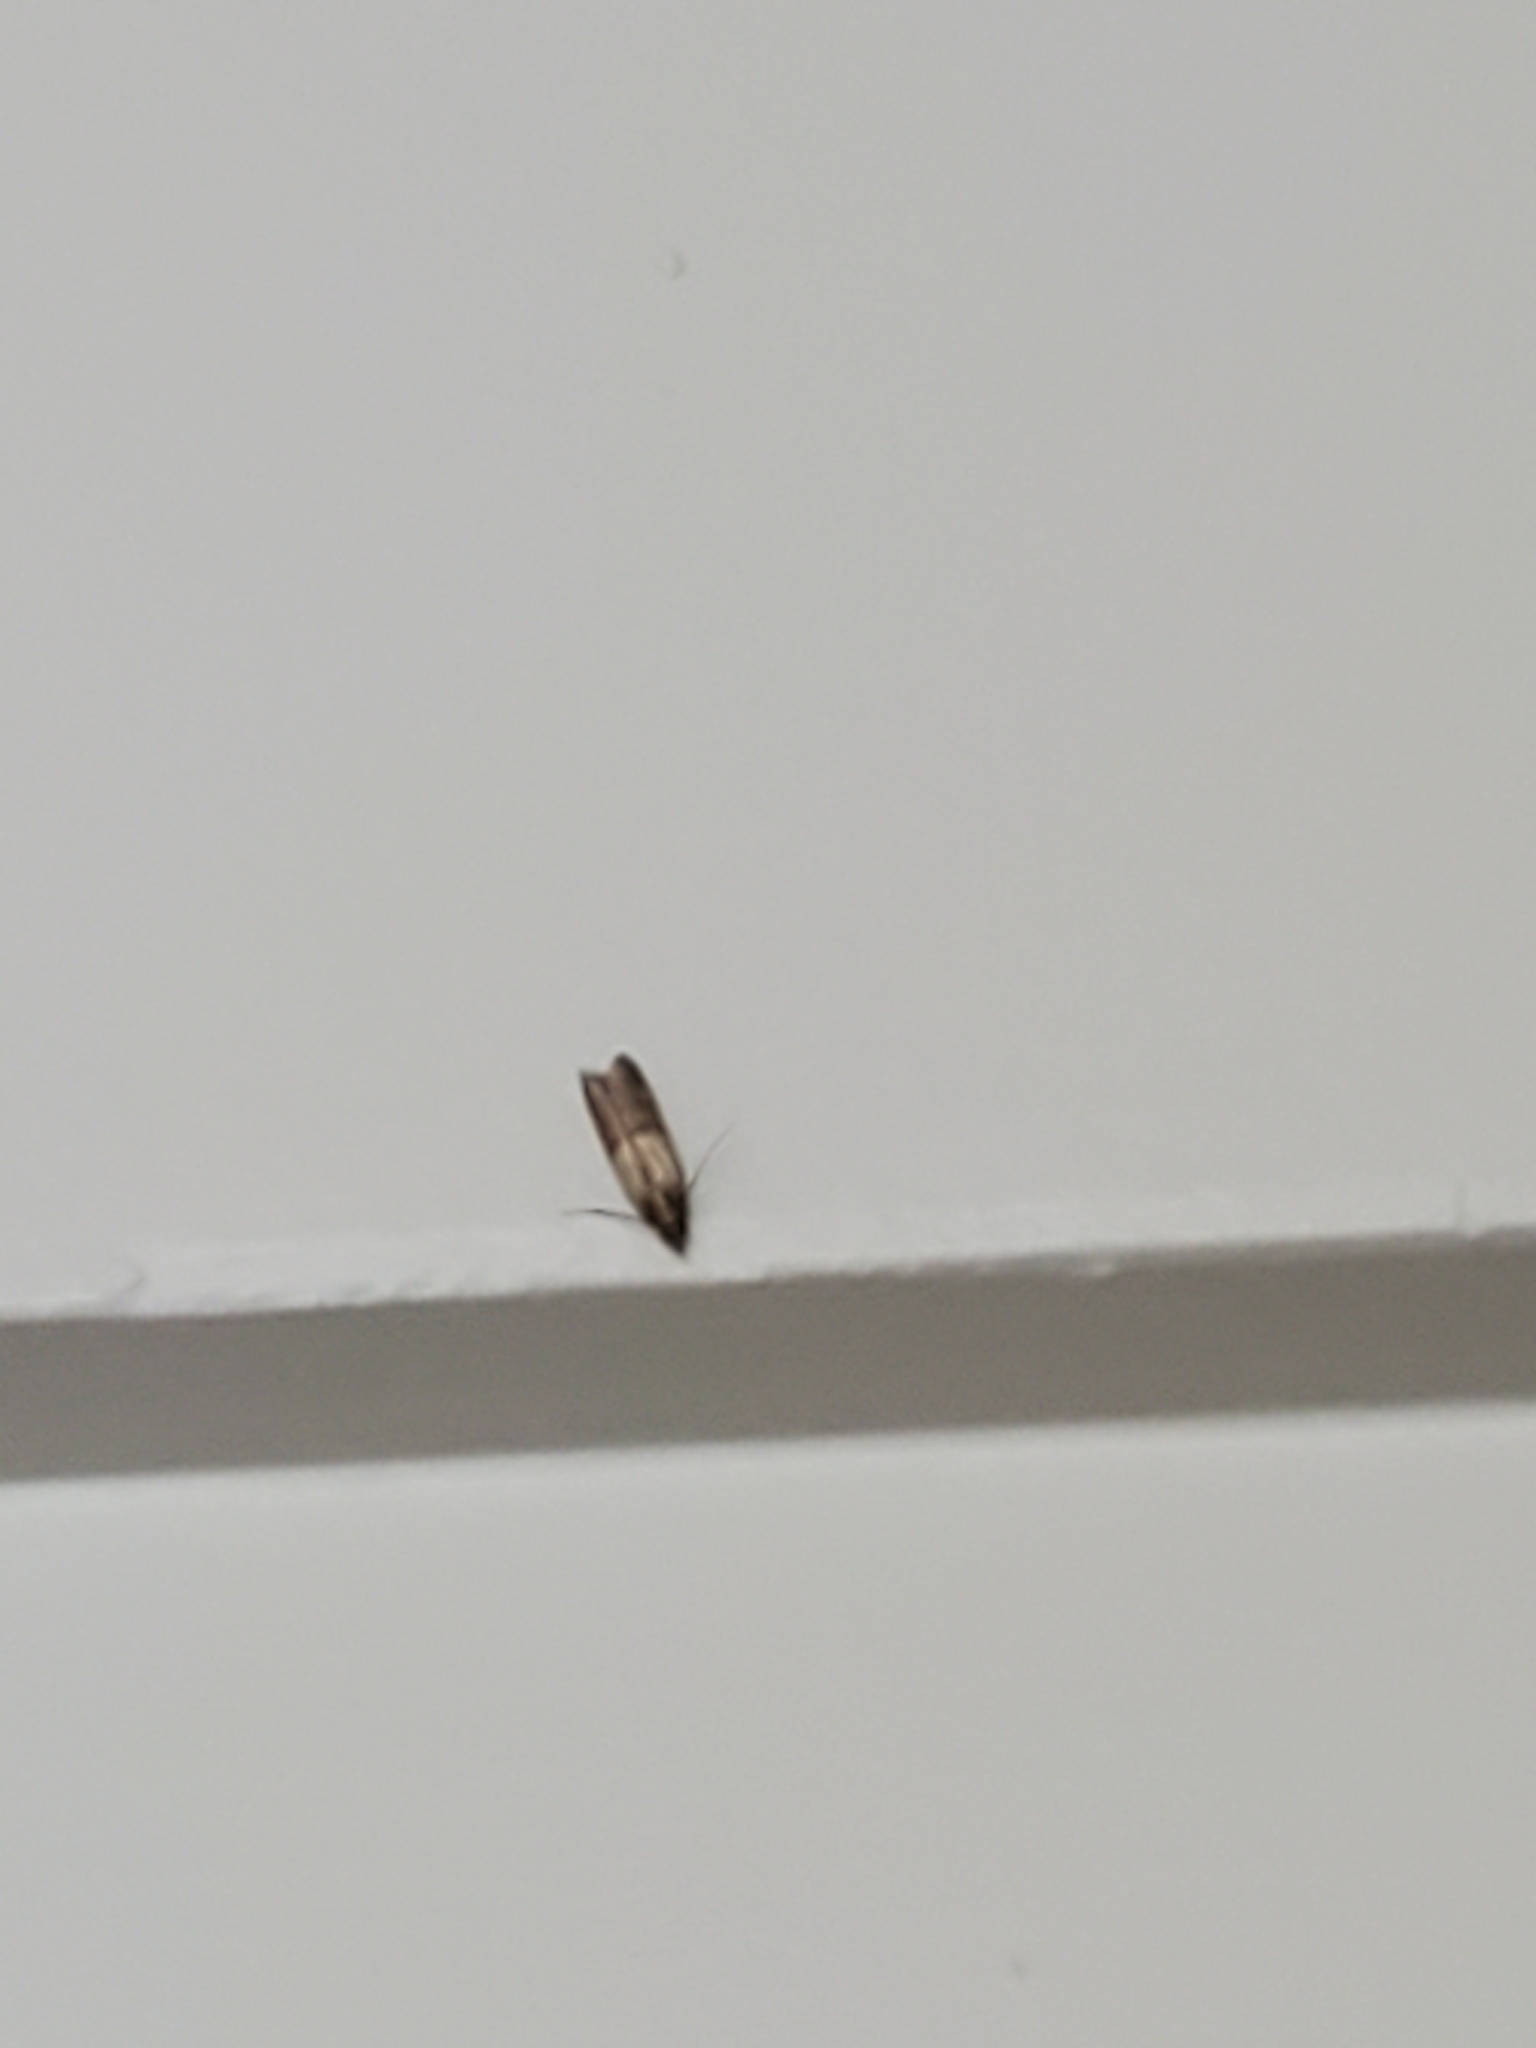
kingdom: Animalia
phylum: Arthropoda
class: Insecta
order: Lepidoptera
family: Pyralidae
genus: Plodia
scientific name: Plodia interpunctella
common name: Indian meal moth
